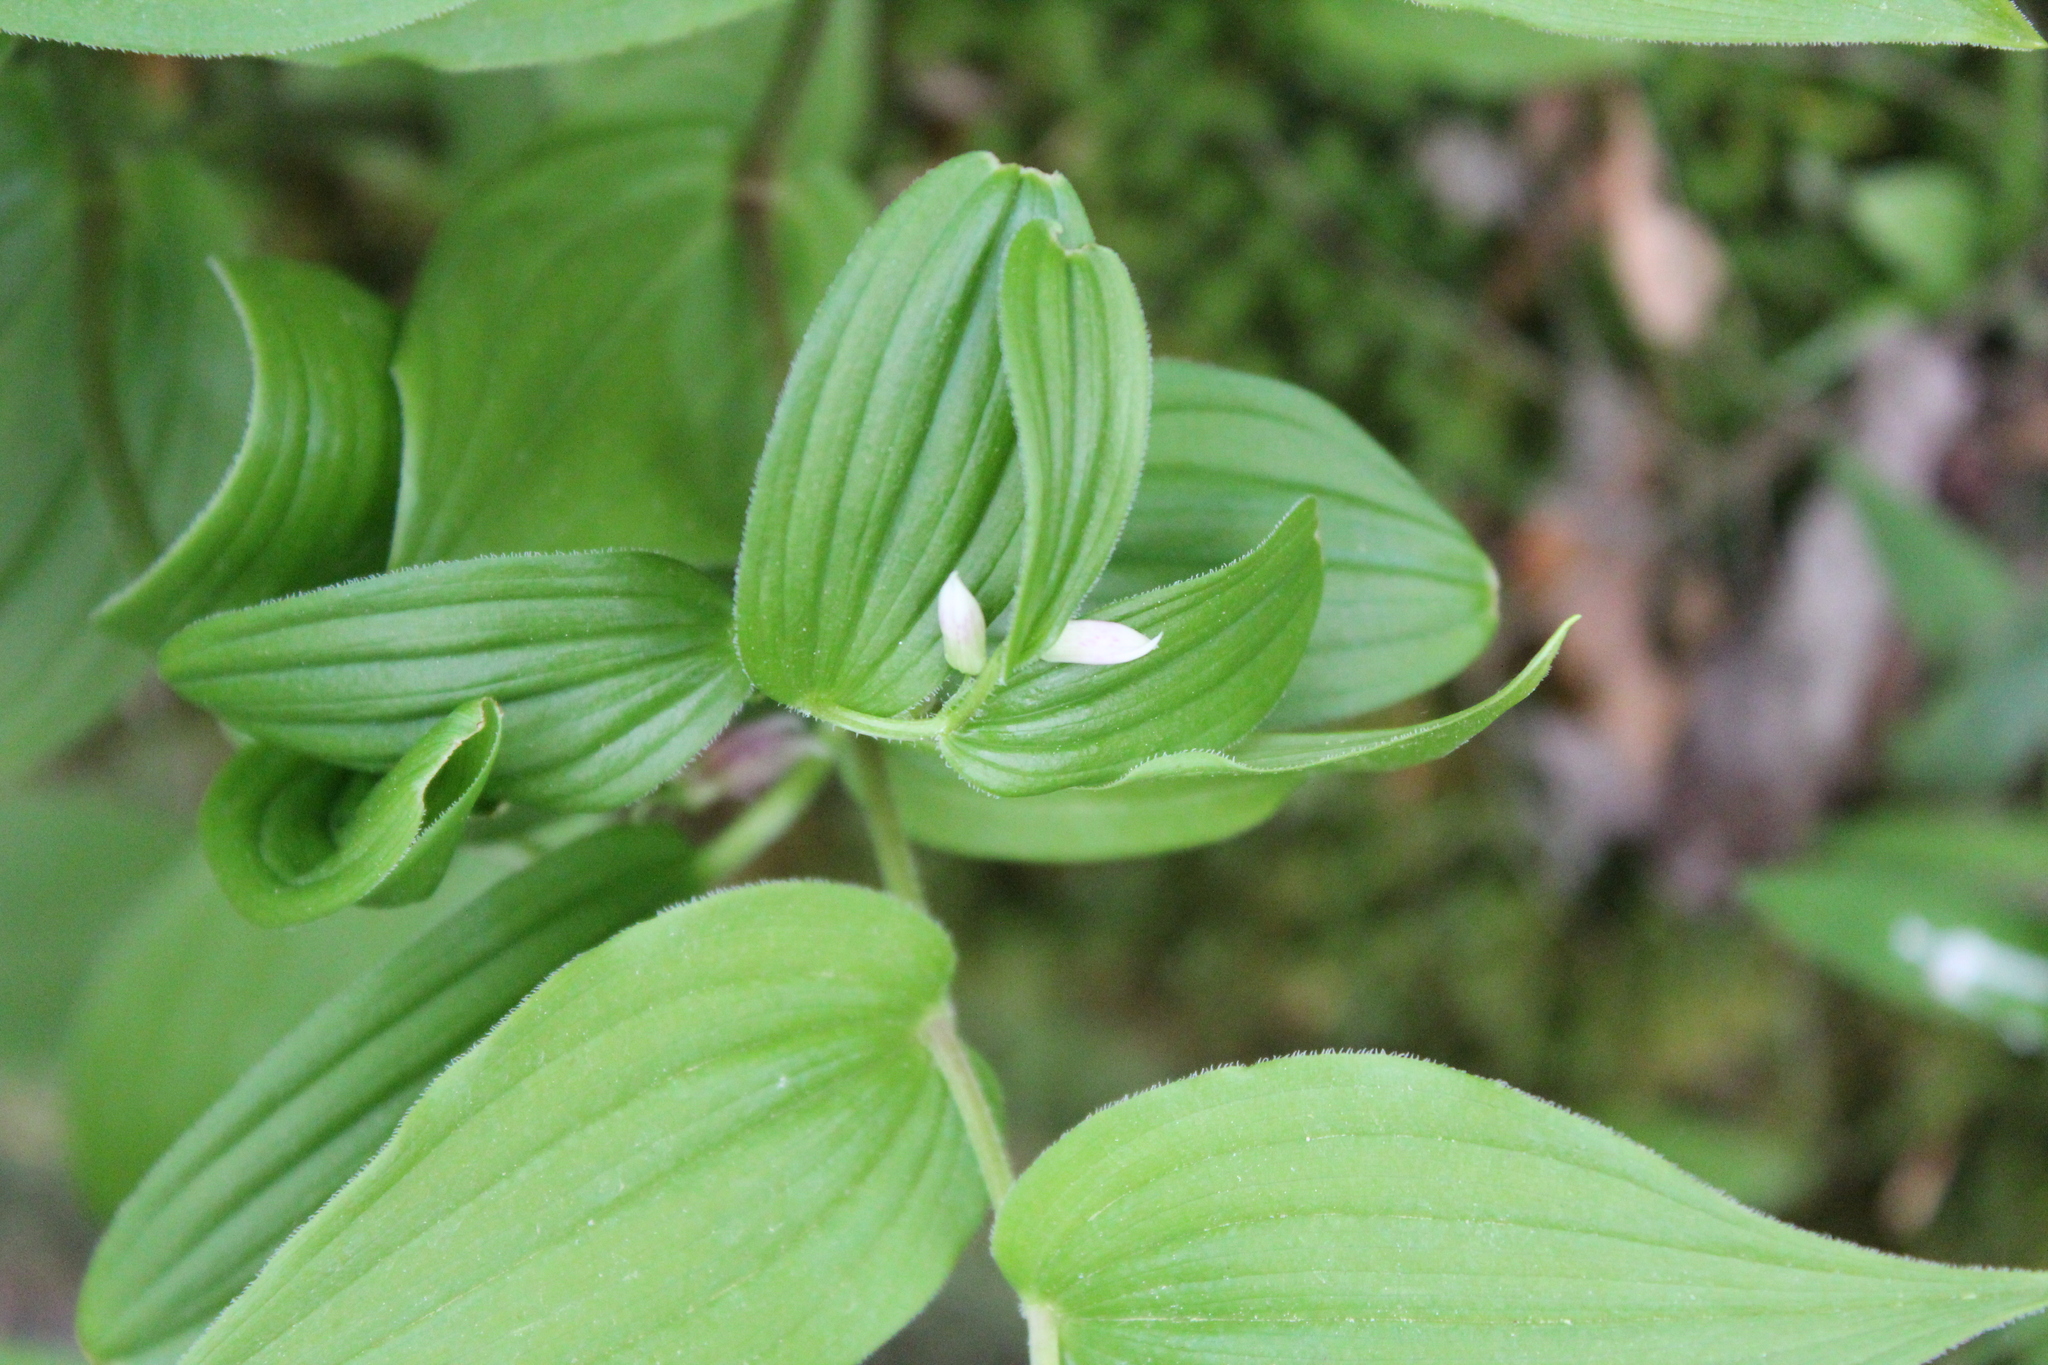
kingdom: Plantae
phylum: Tracheophyta
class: Liliopsida
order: Liliales
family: Liliaceae
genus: Streptopus
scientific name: Streptopus lanceolatus
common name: Rose mandarin
